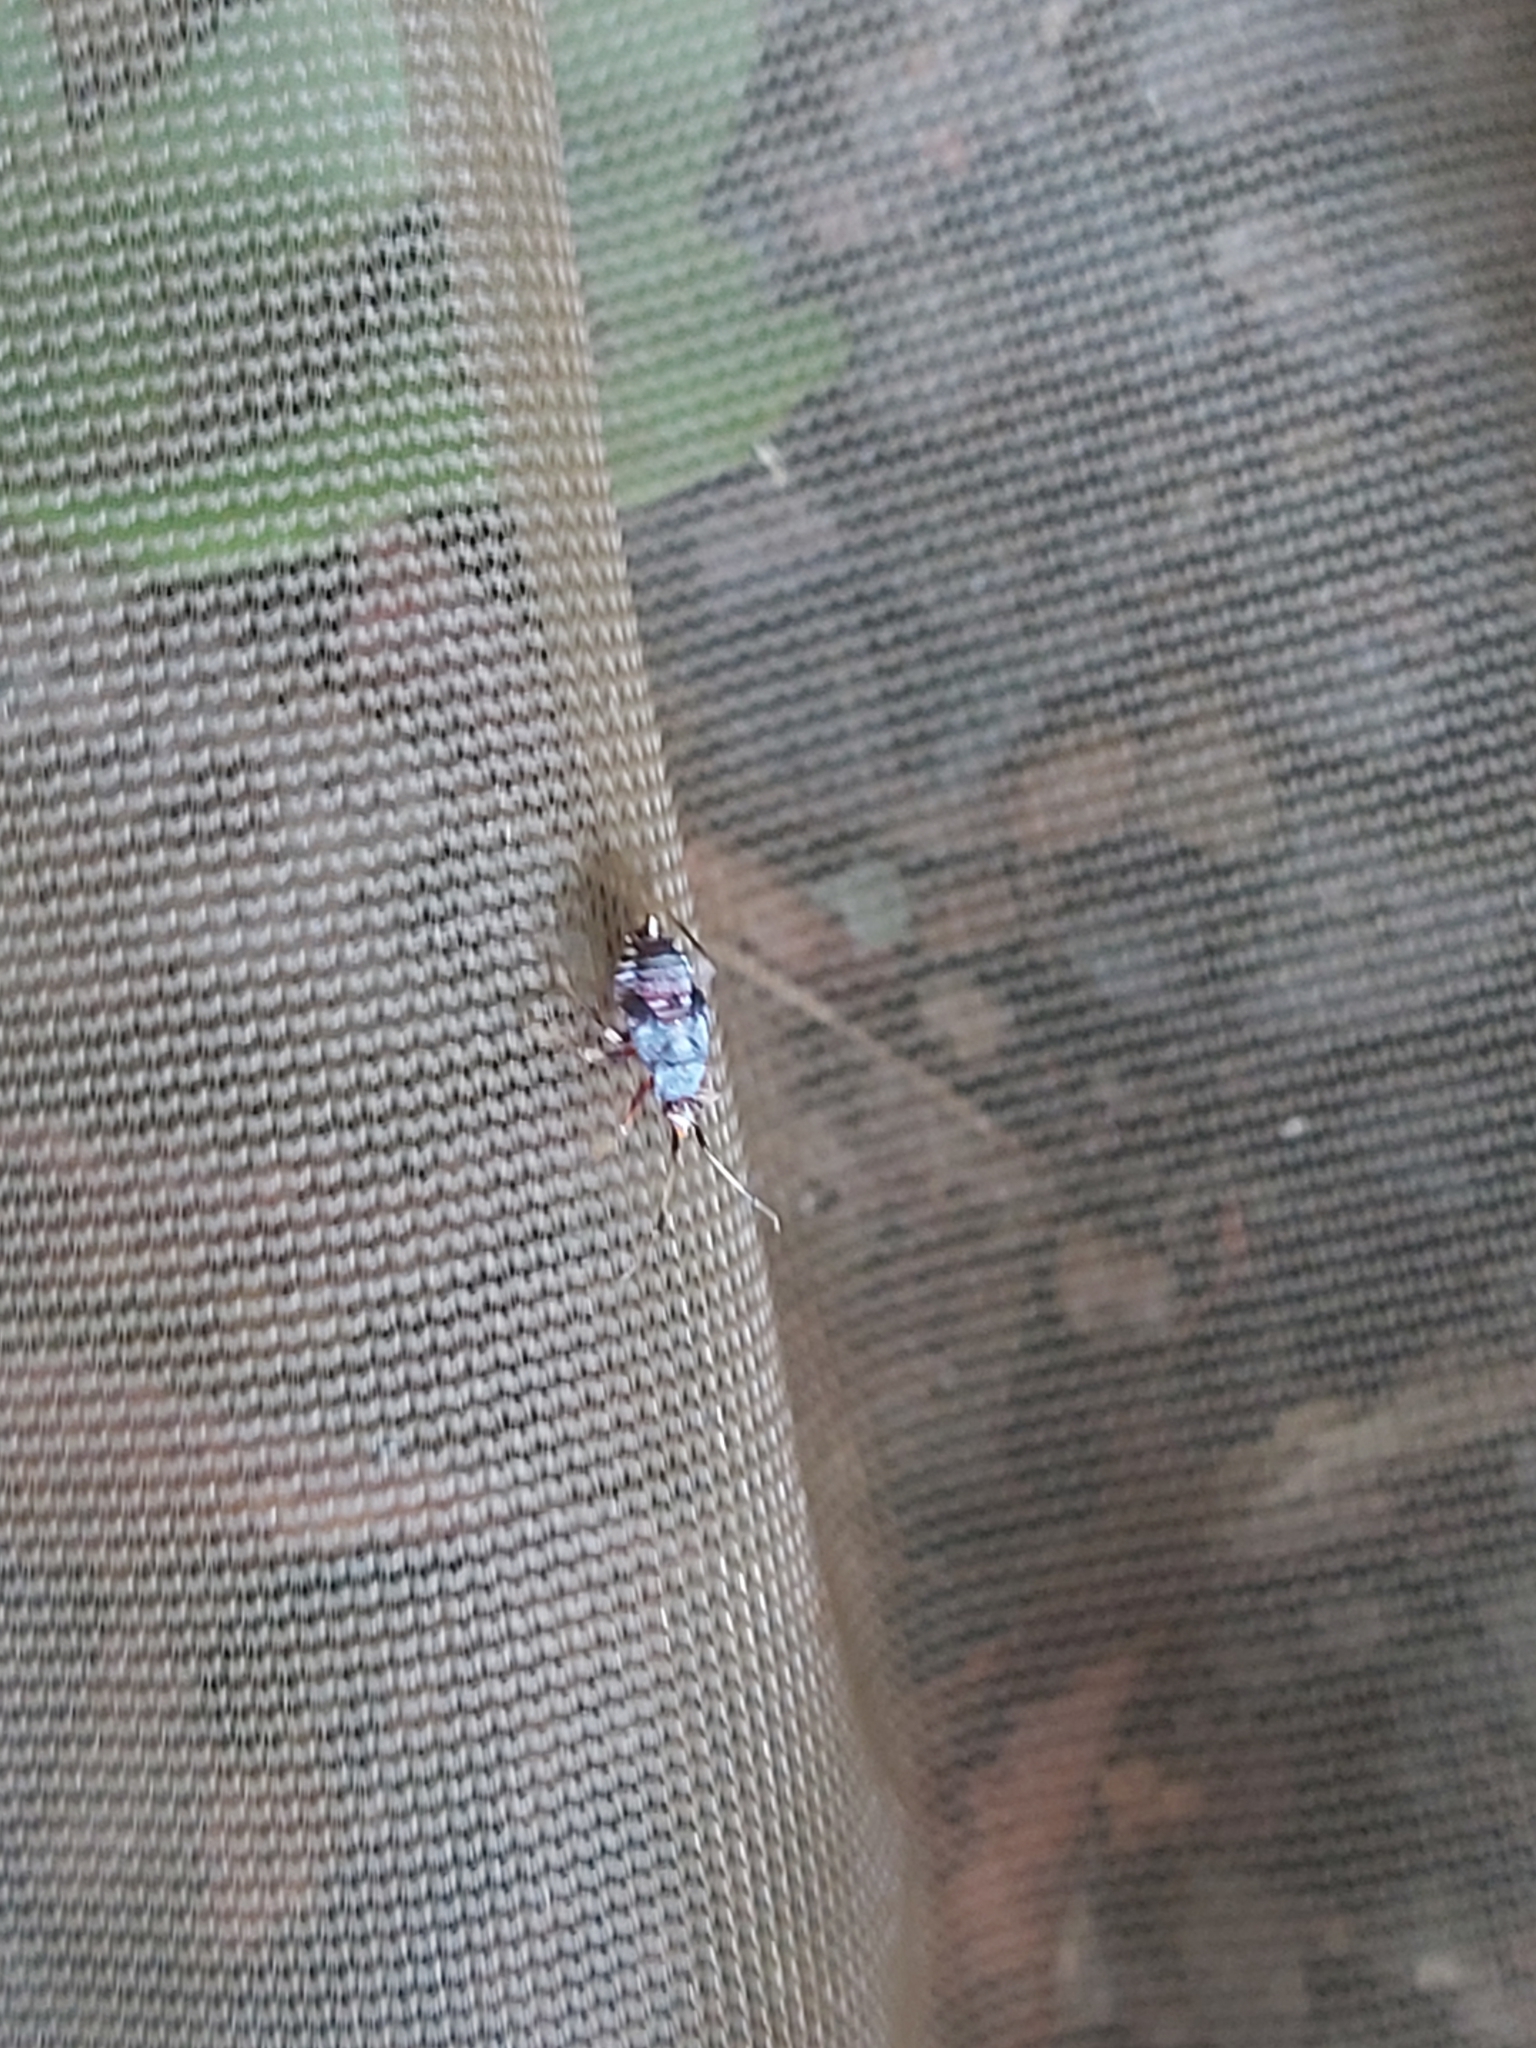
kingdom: Animalia
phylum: Arthropoda
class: Insecta
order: Hemiptera
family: Miridae
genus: Deraeocoris
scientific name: Deraeocoris ruber
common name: Plant bug
